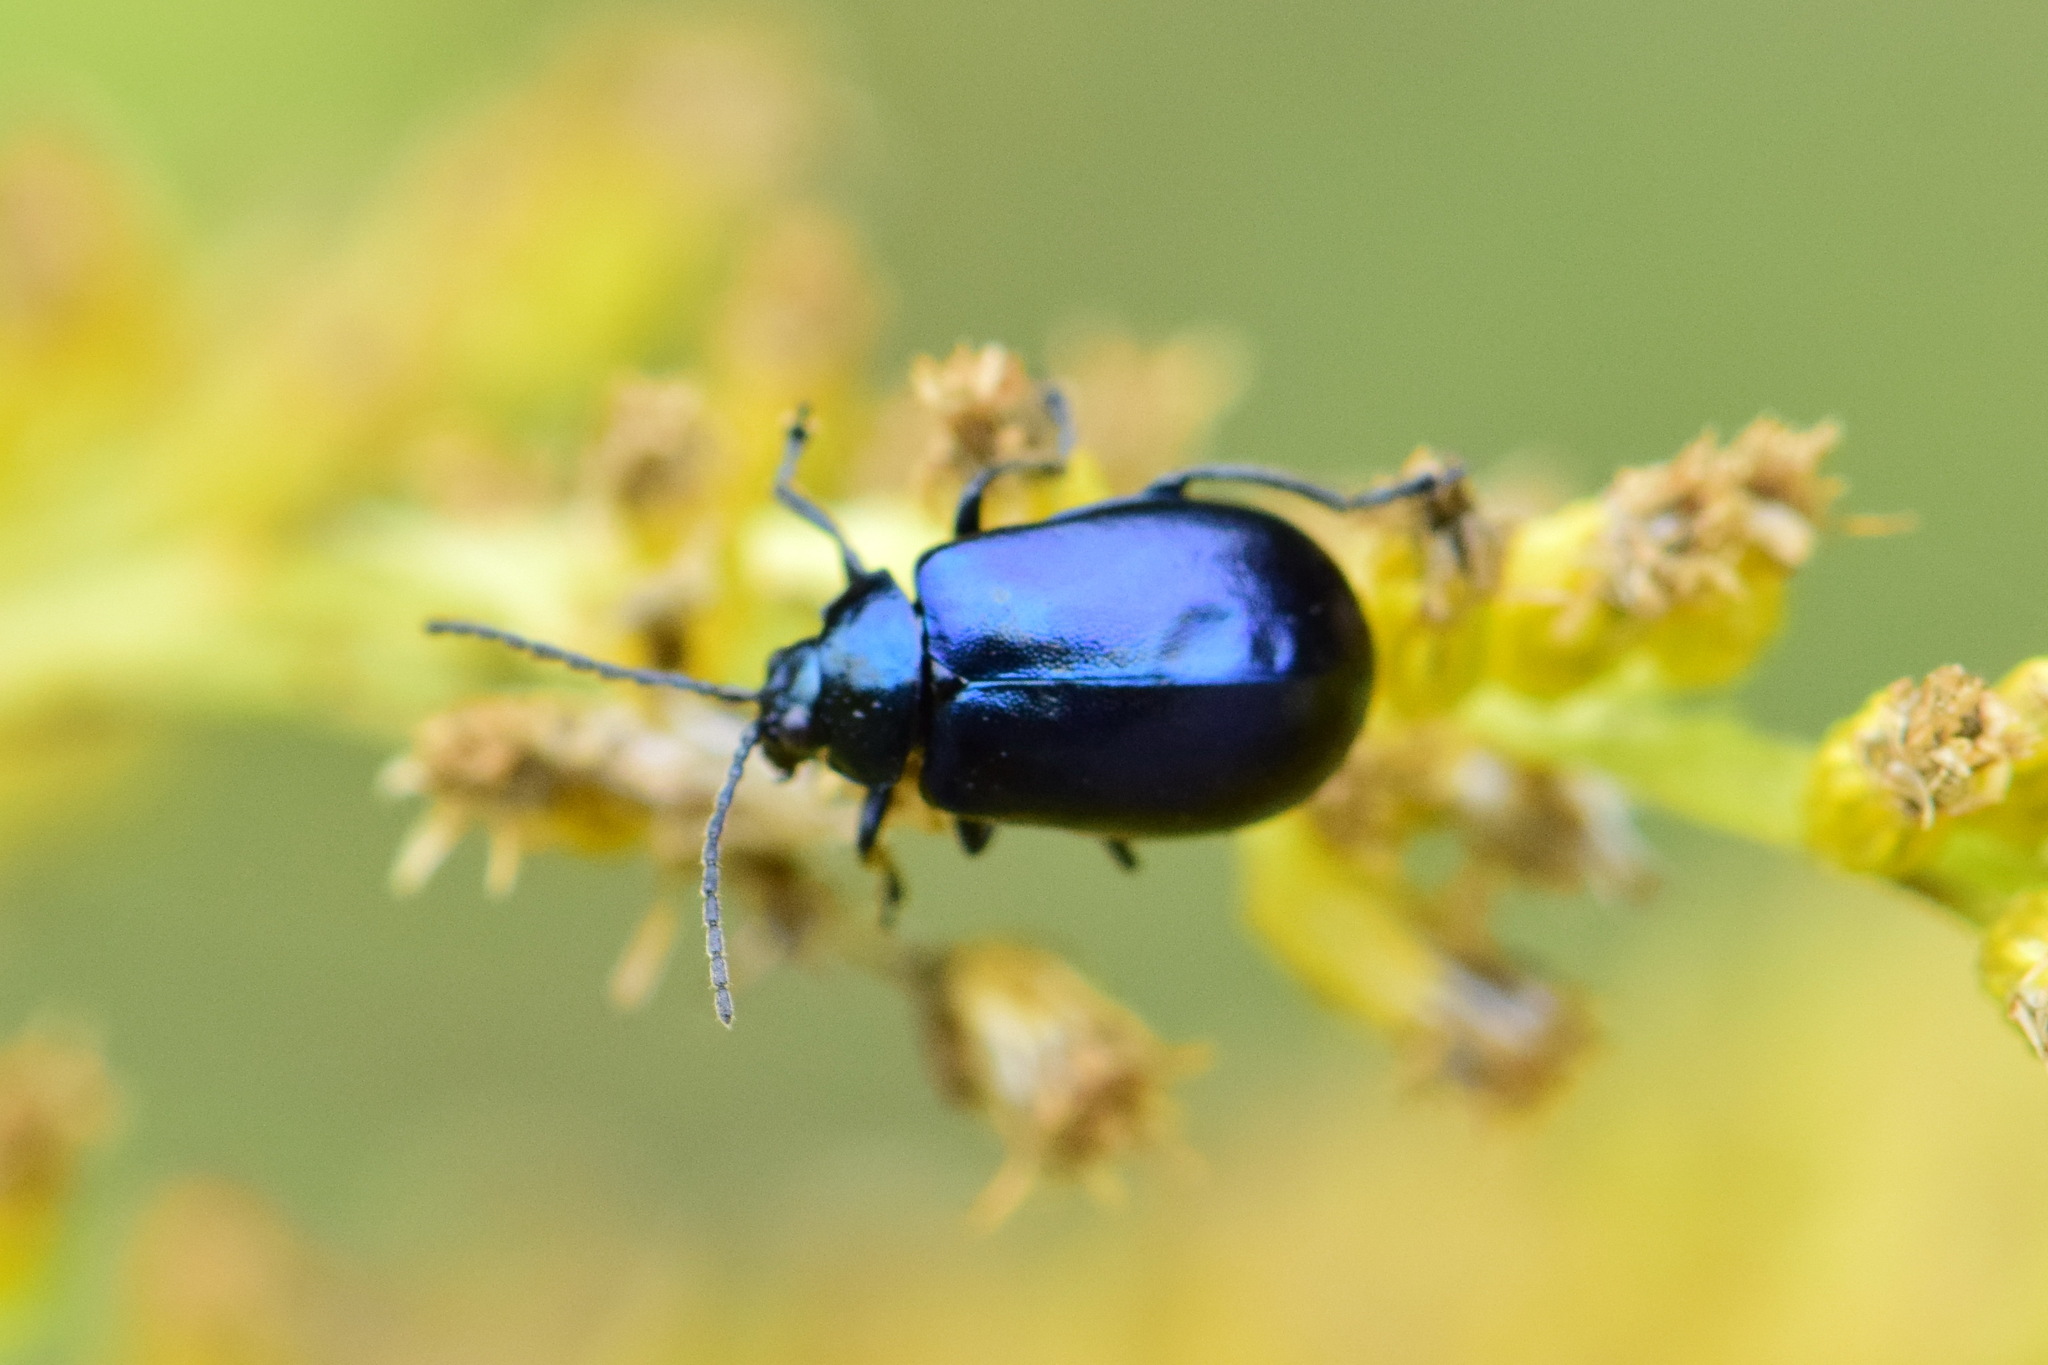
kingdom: Animalia
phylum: Arthropoda
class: Insecta
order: Coleoptera
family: Chrysomelidae
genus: Agelastica
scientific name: Agelastica alni
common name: Alder leaf beetle
